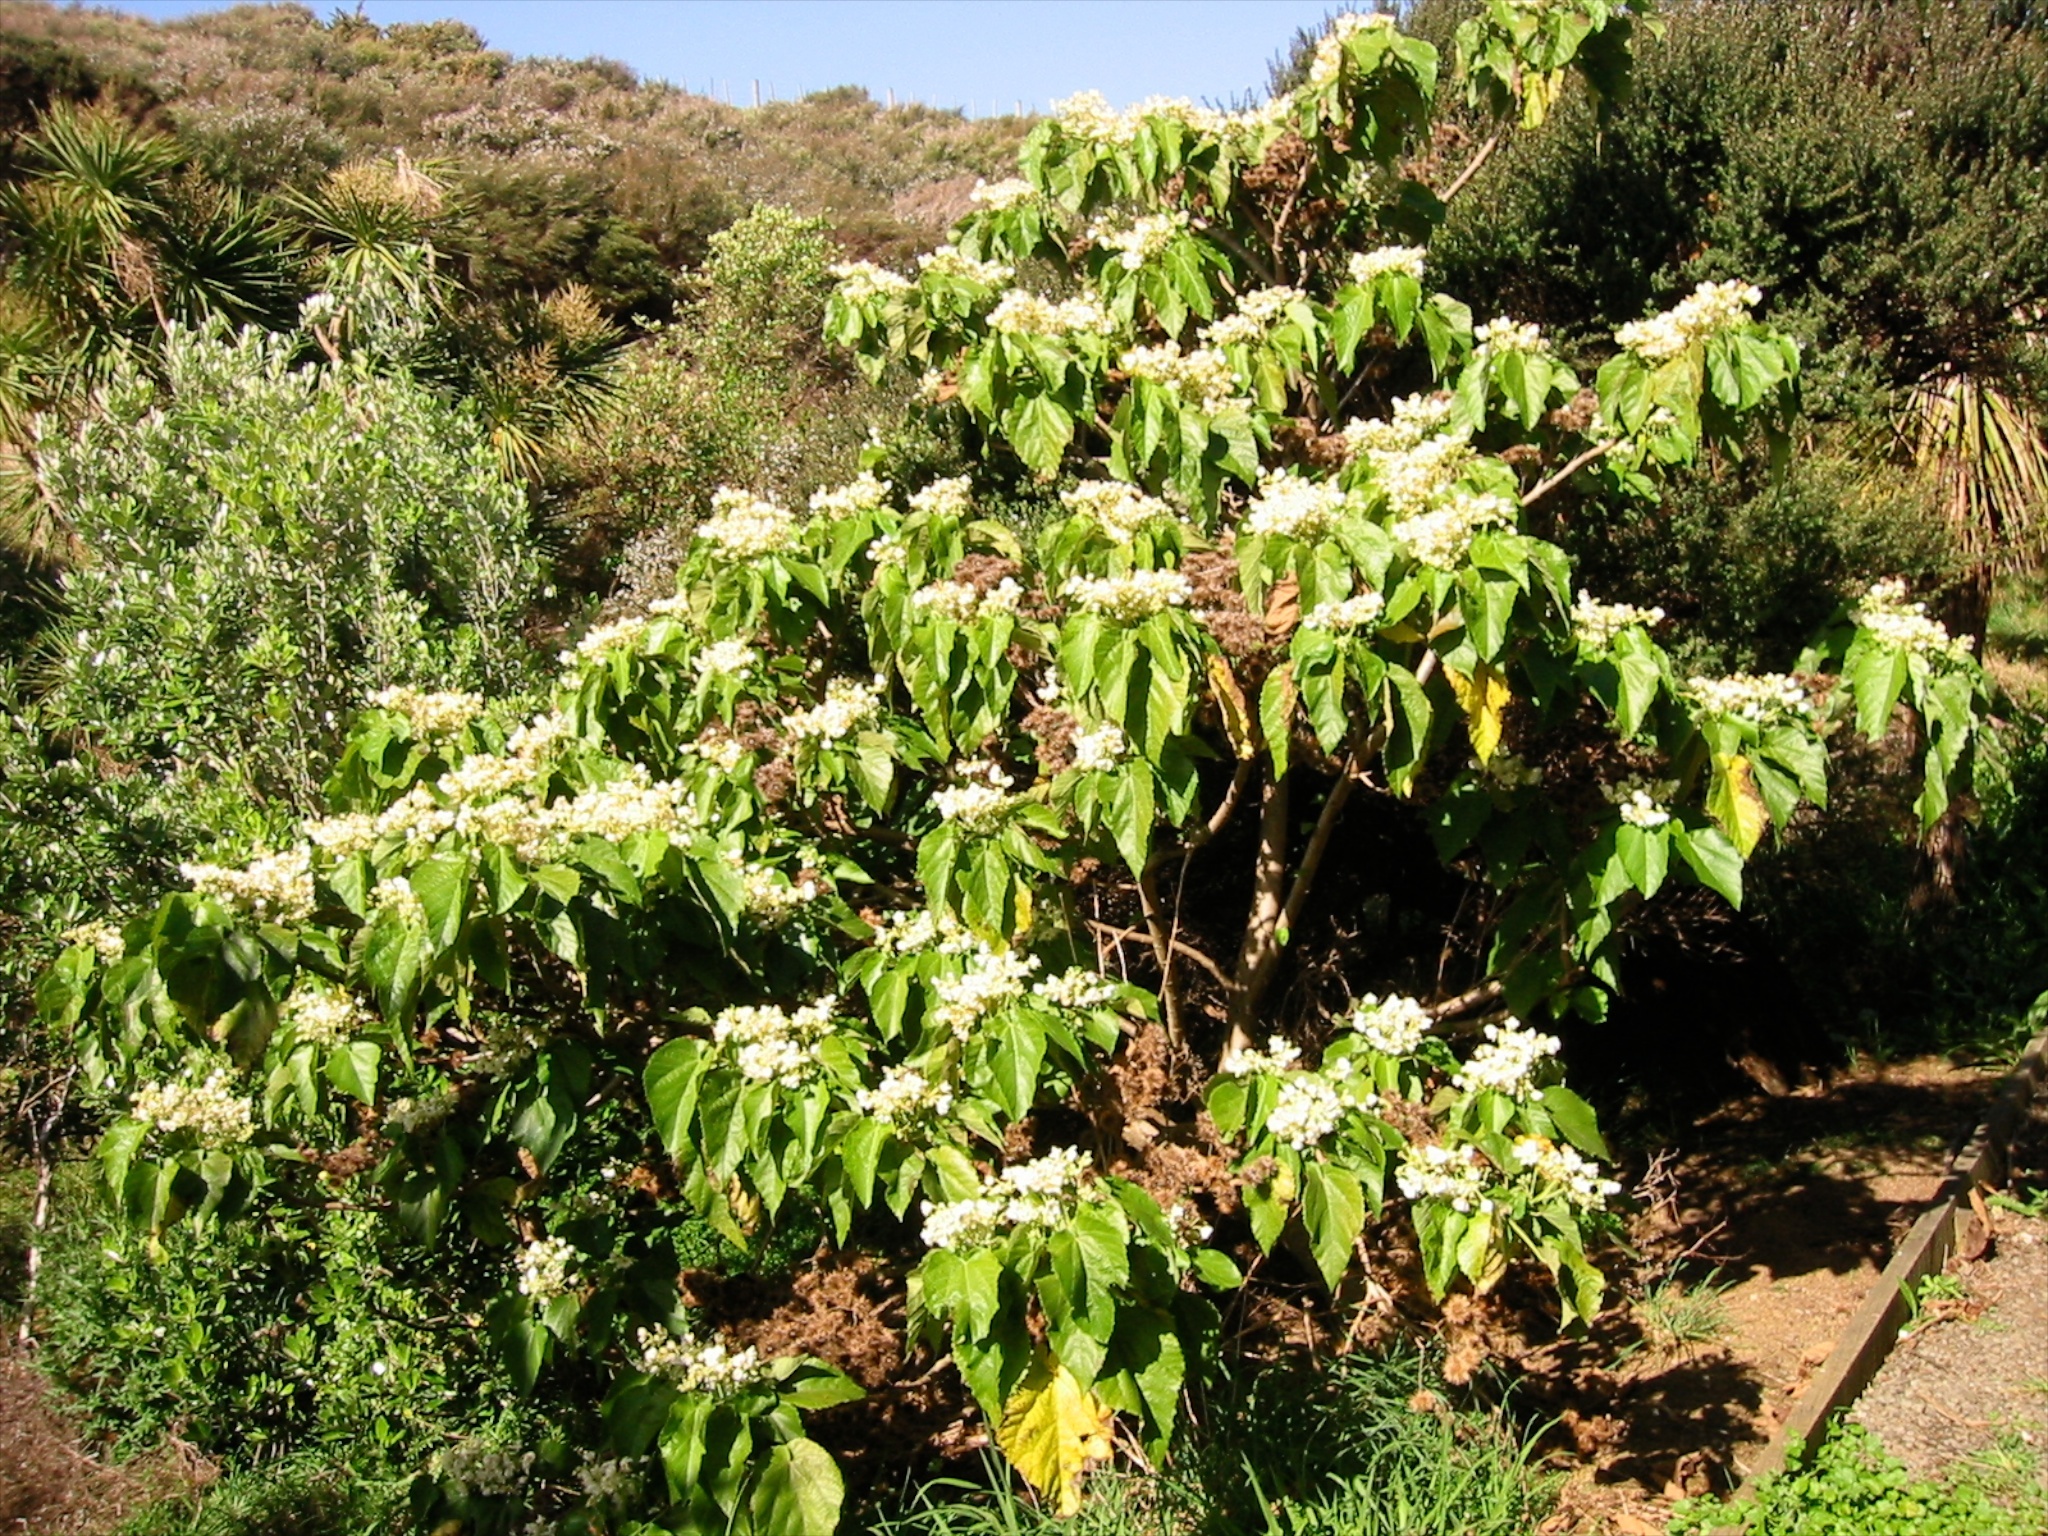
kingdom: Plantae
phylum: Tracheophyta
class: Magnoliopsida
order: Malvales
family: Malvaceae
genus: Entelea
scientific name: Entelea arborescens
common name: New zealand-mulberry
